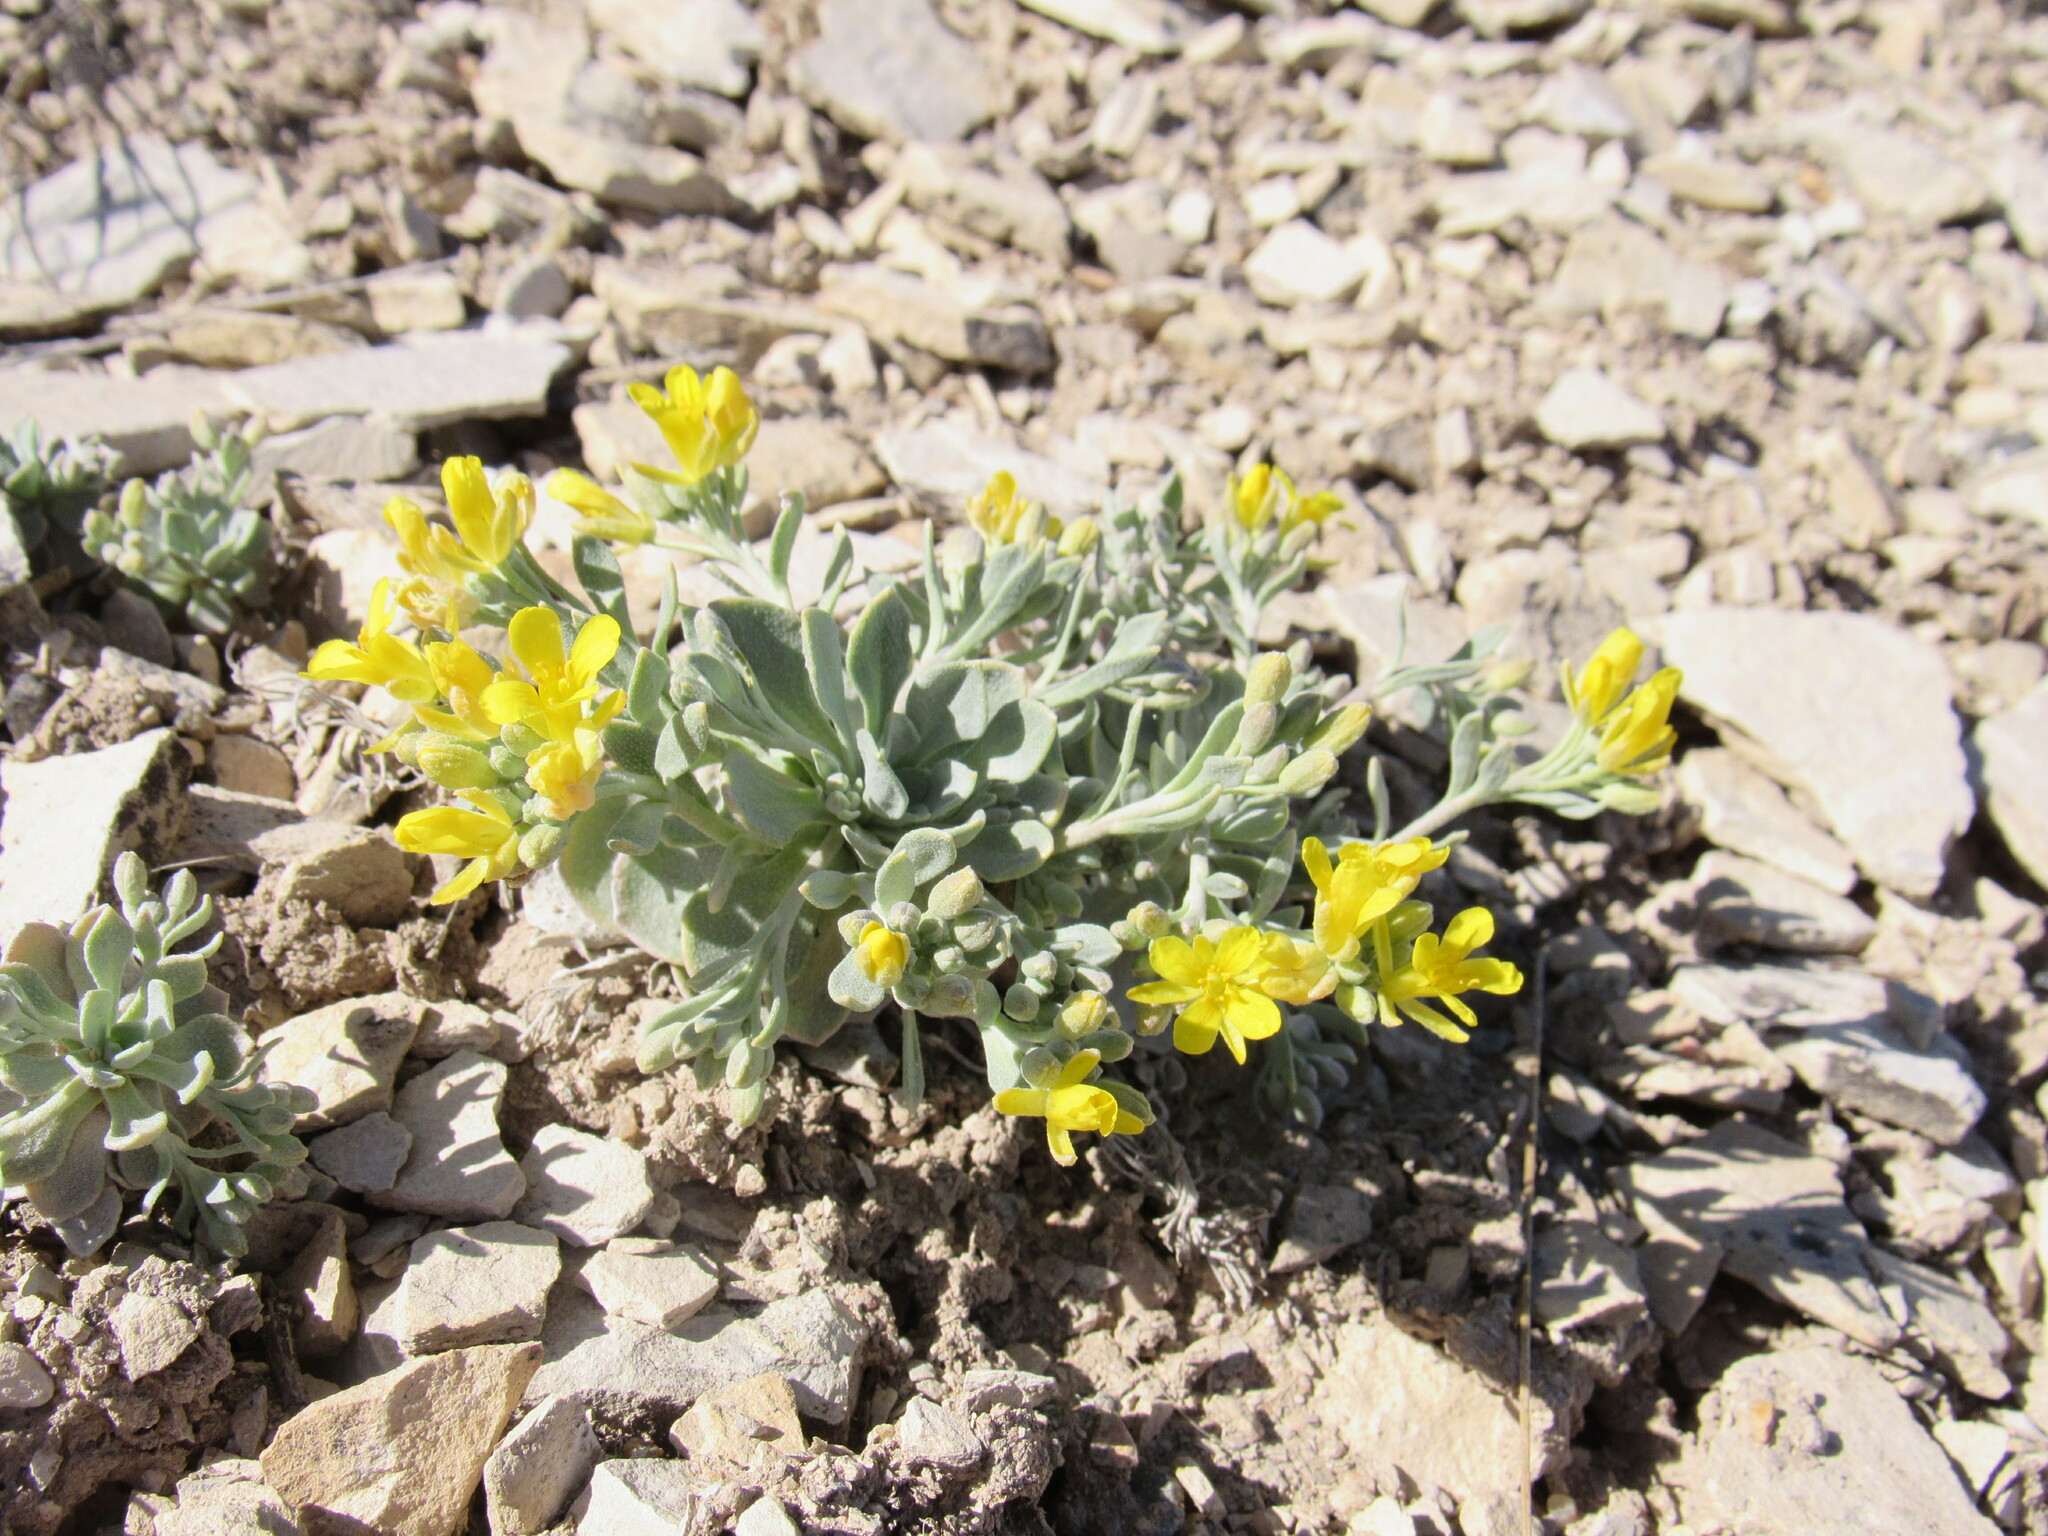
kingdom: Plantae
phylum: Tracheophyta
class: Magnoliopsida
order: Brassicales
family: Brassicaceae
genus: Physaria
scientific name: Physaria bellii
